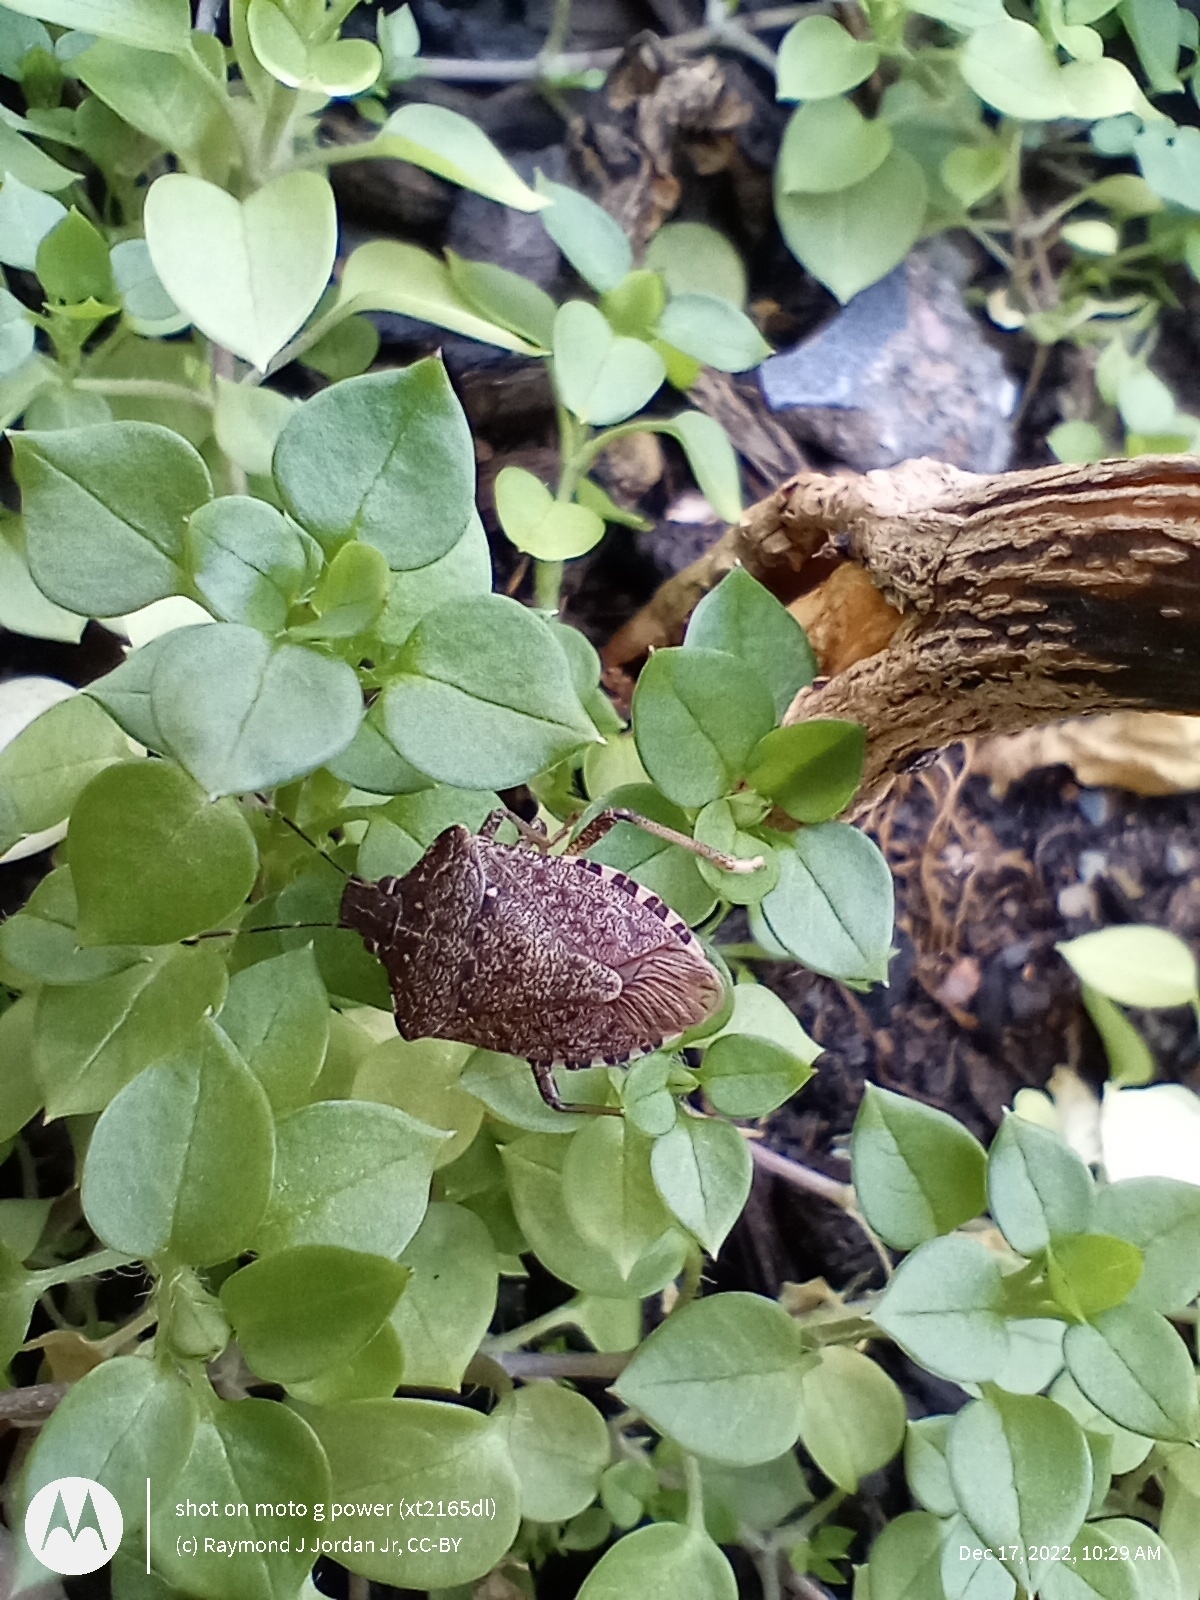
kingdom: Animalia
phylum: Arthropoda
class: Insecta
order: Hemiptera
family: Pentatomidae
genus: Halyomorpha
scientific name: Halyomorpha halys
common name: Brown marmorated stink bug
